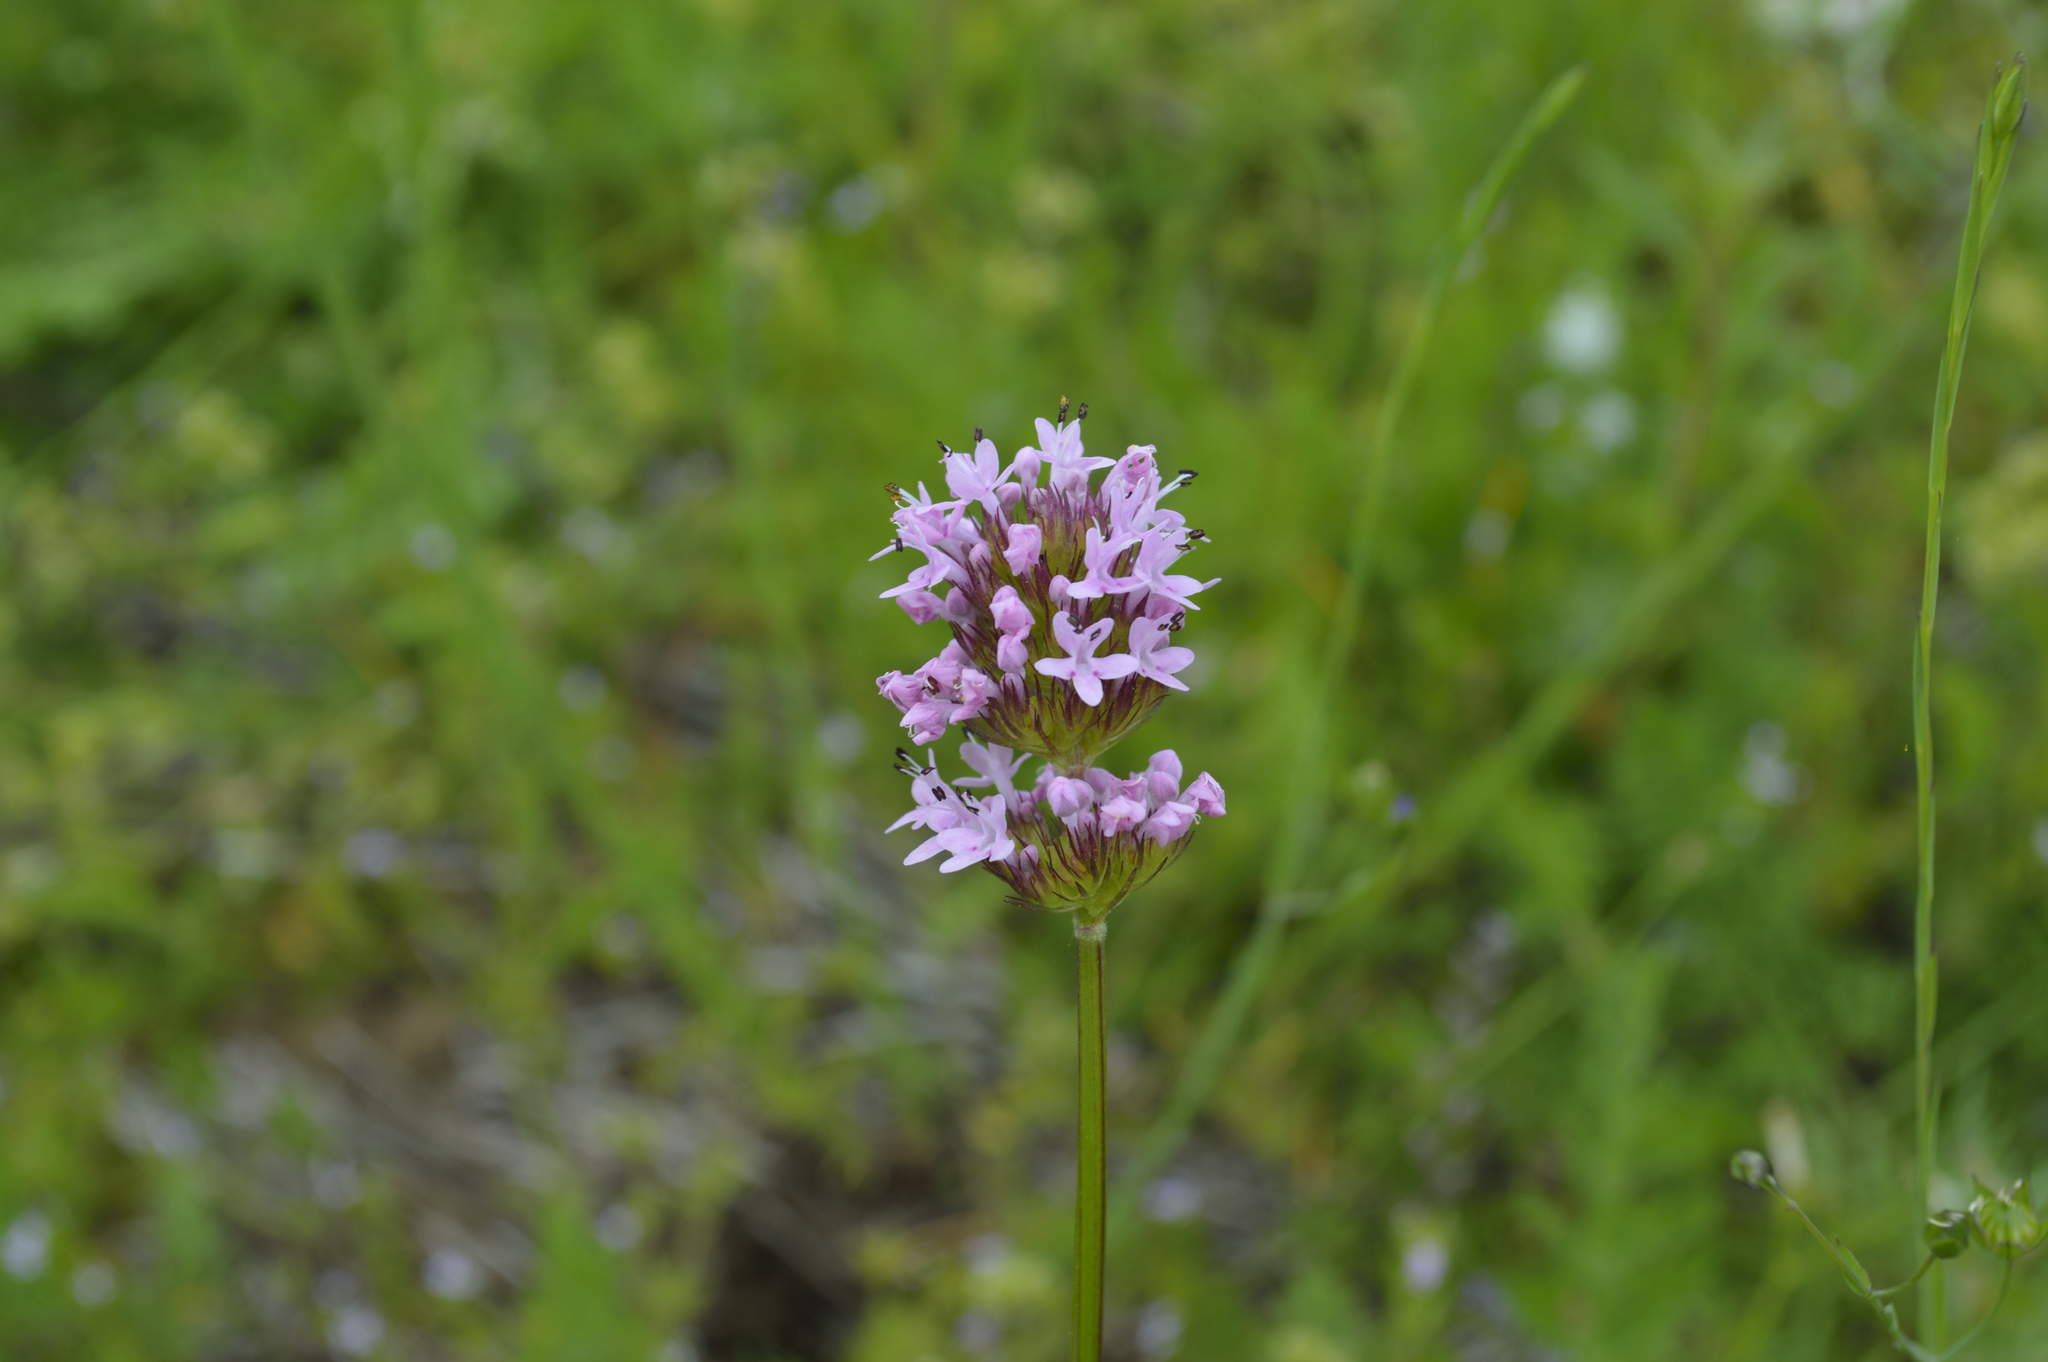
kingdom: Plantae
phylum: Tracheophyta
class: Magnoliopsida
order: Dipsacales
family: Caprifoliaceae
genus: Plectritis
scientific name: Plectritis congesta
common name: Pink plectritis
